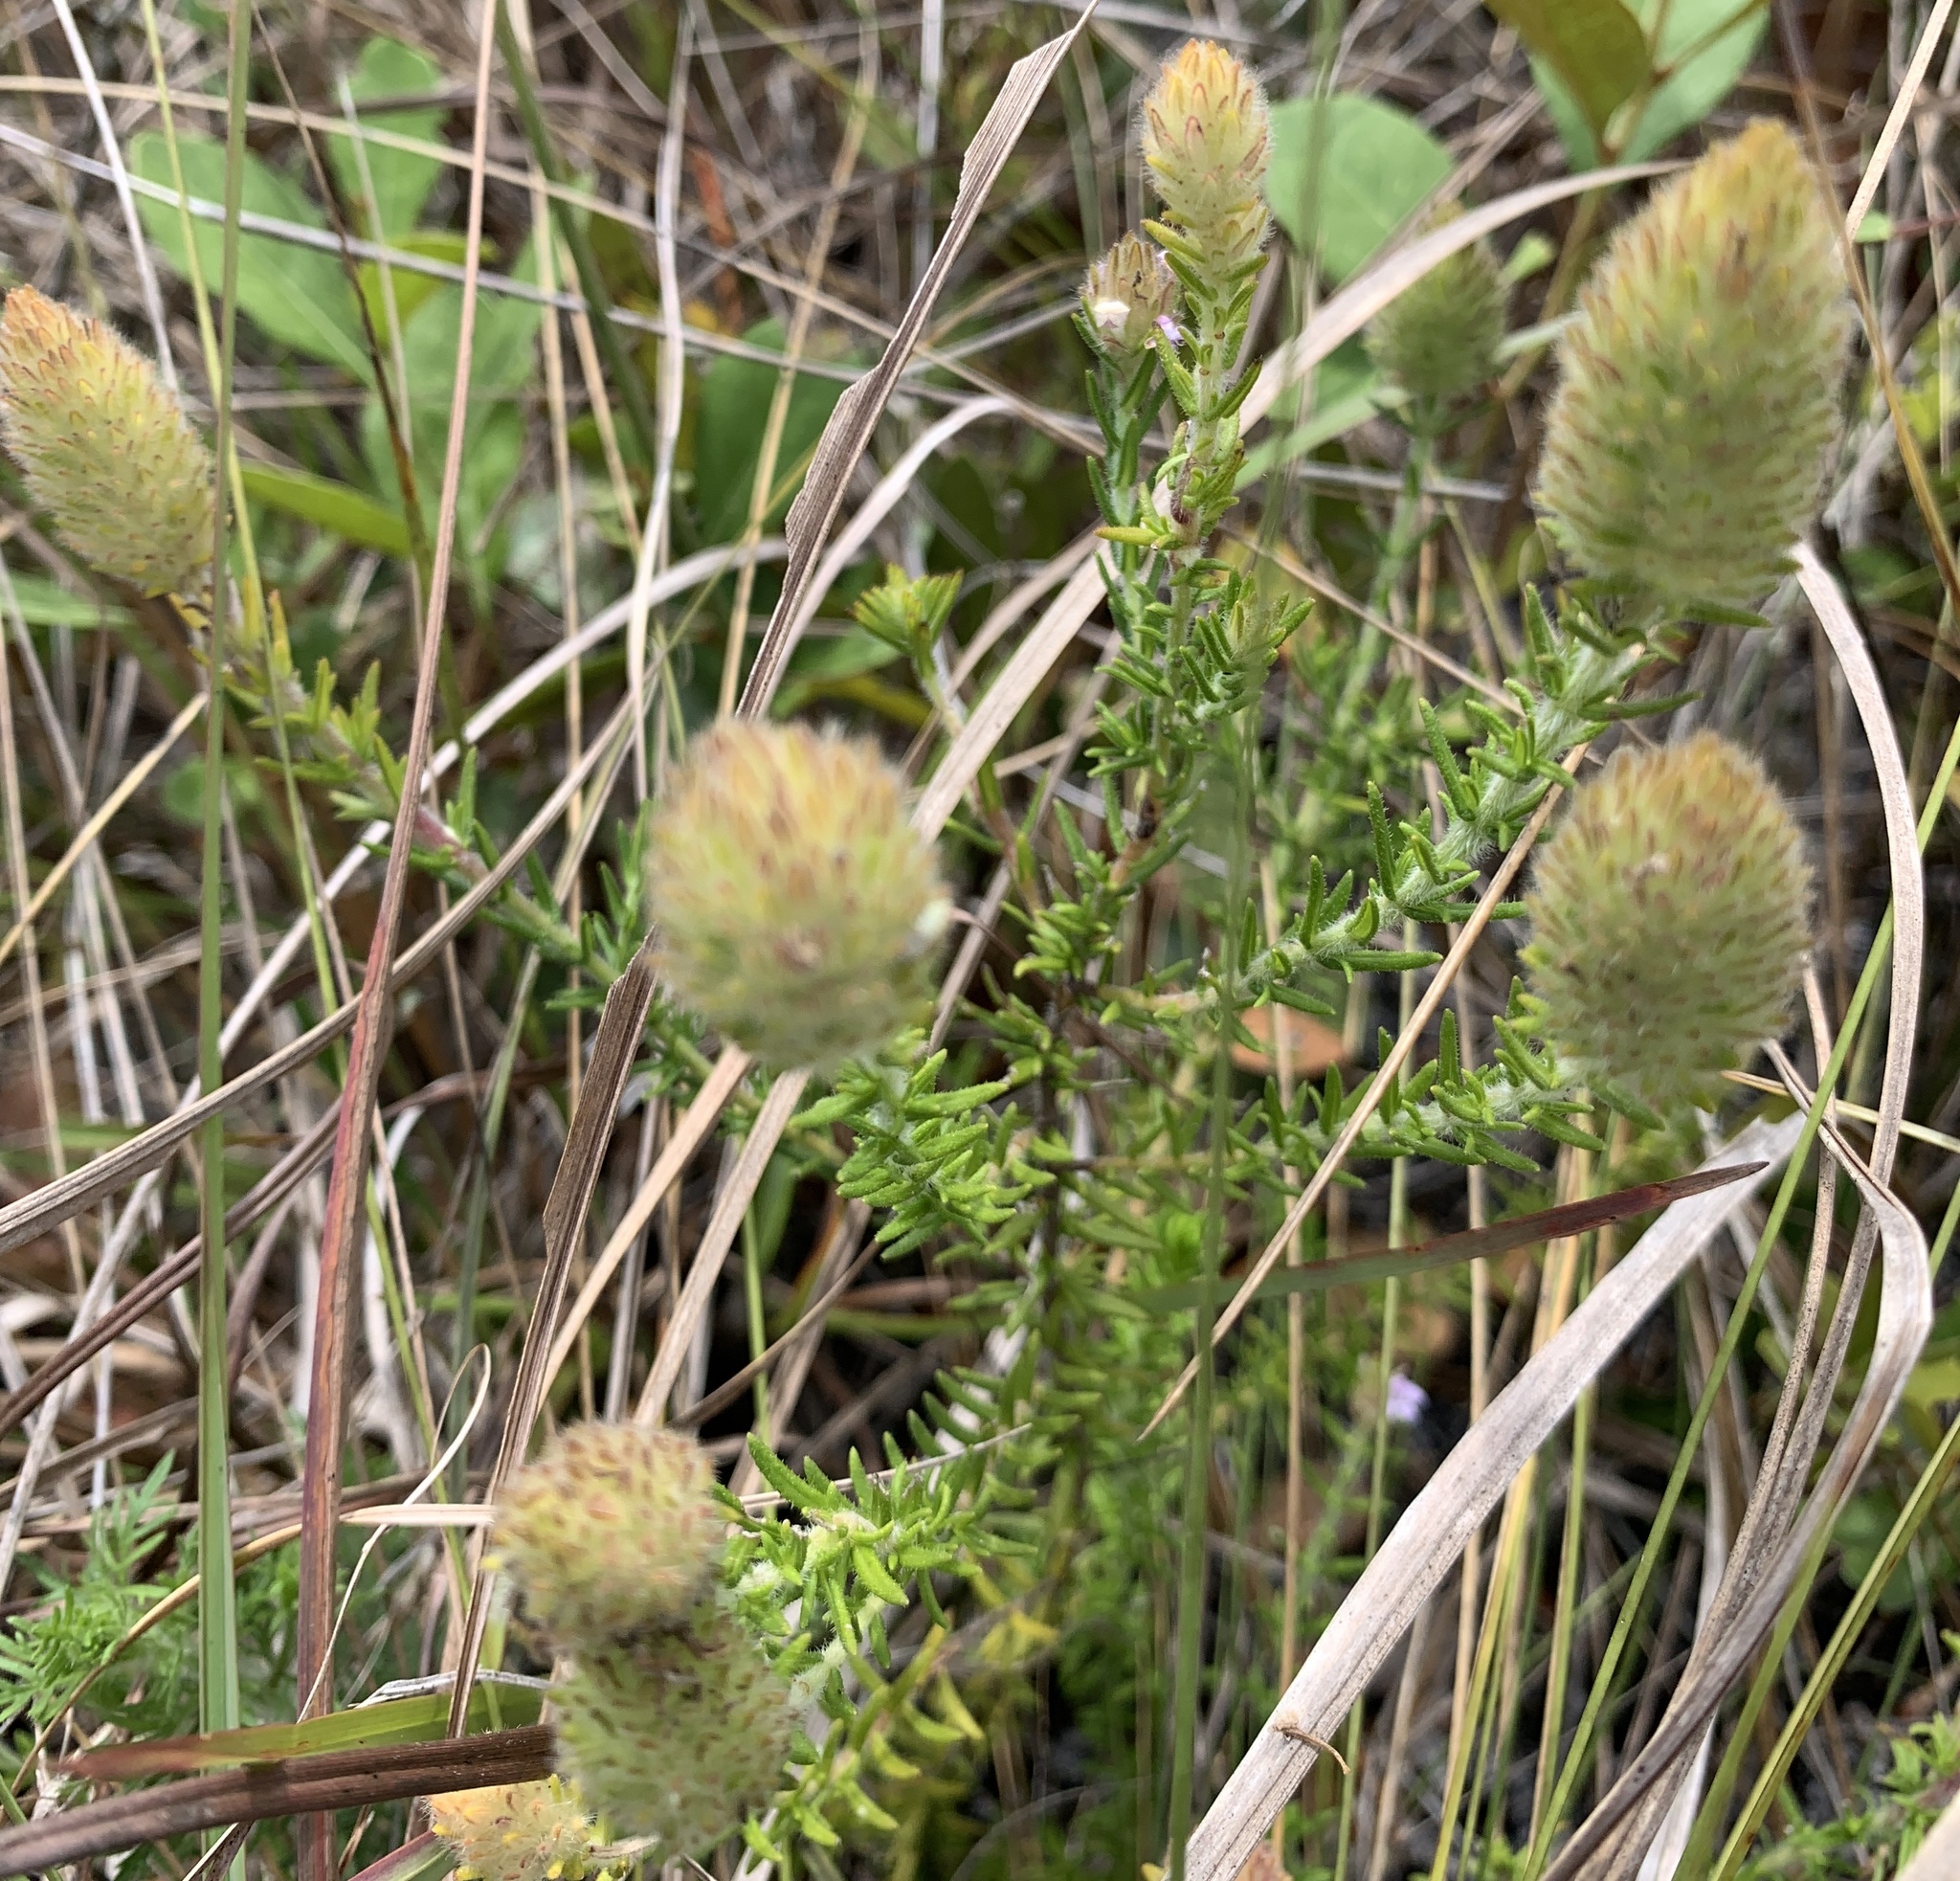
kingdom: Plantae
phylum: Tracheophyta
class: Magnoliopsida
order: Lamiales
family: Lamiaceae
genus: Piloblephis
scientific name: Piloblephis rigida
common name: Wild pennyroyal
